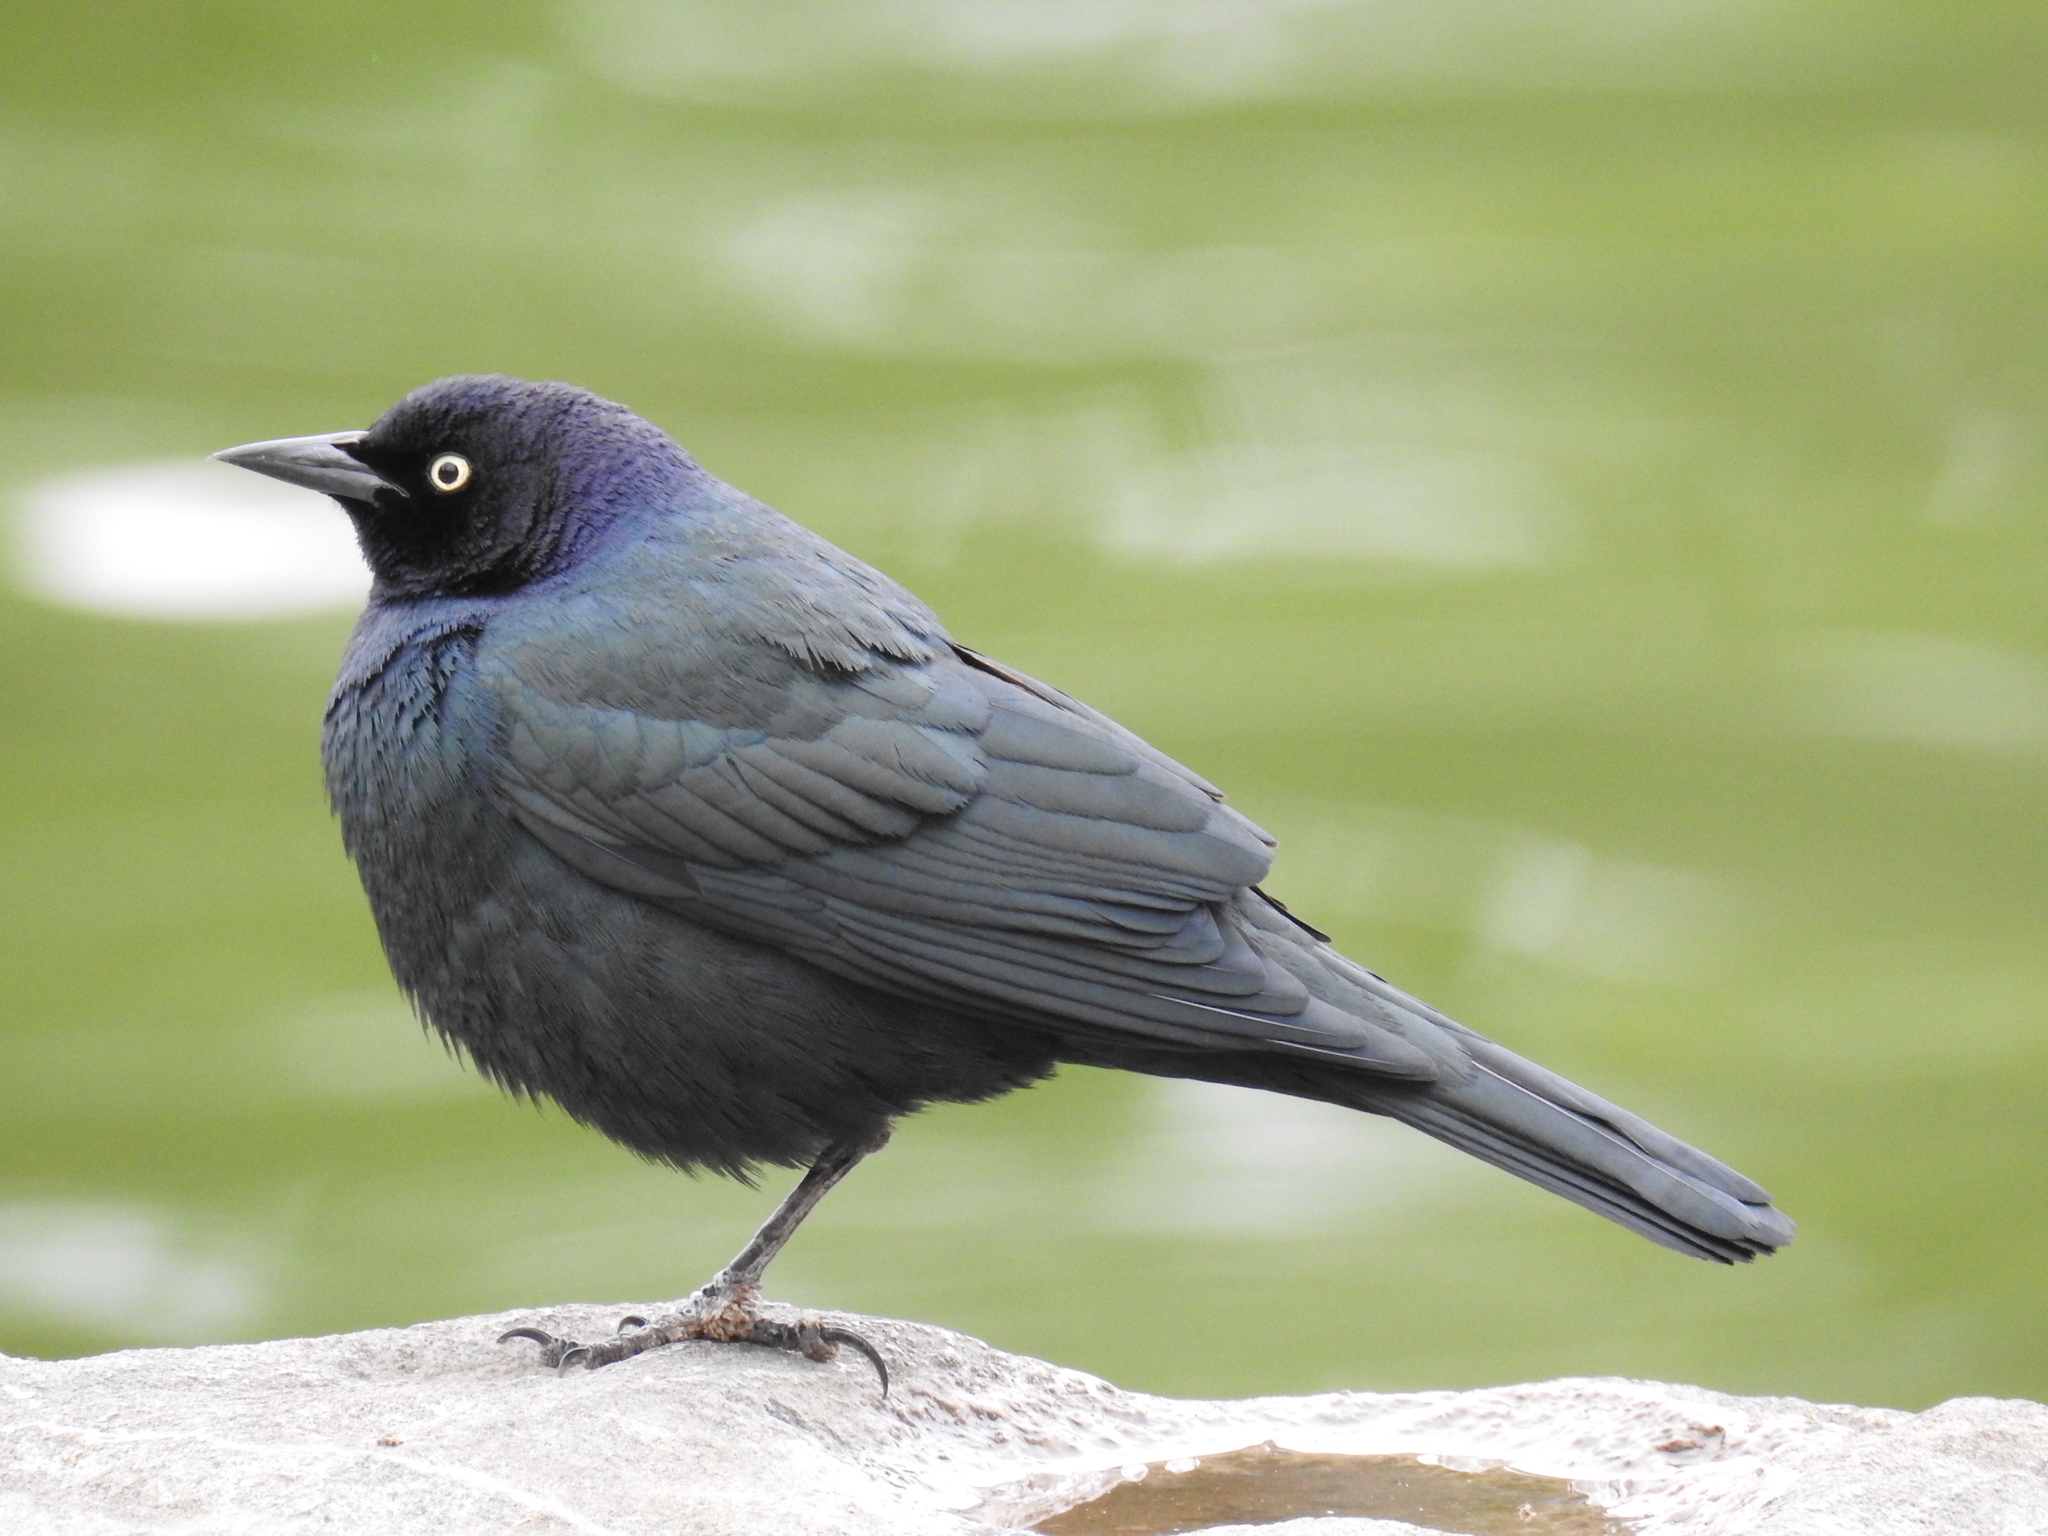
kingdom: Animalia
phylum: Chordata
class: Aves
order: Passeriformes
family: Icteridae
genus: Euphagus
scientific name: Euphagus cyanocephalus
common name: Brewer's blackbird
